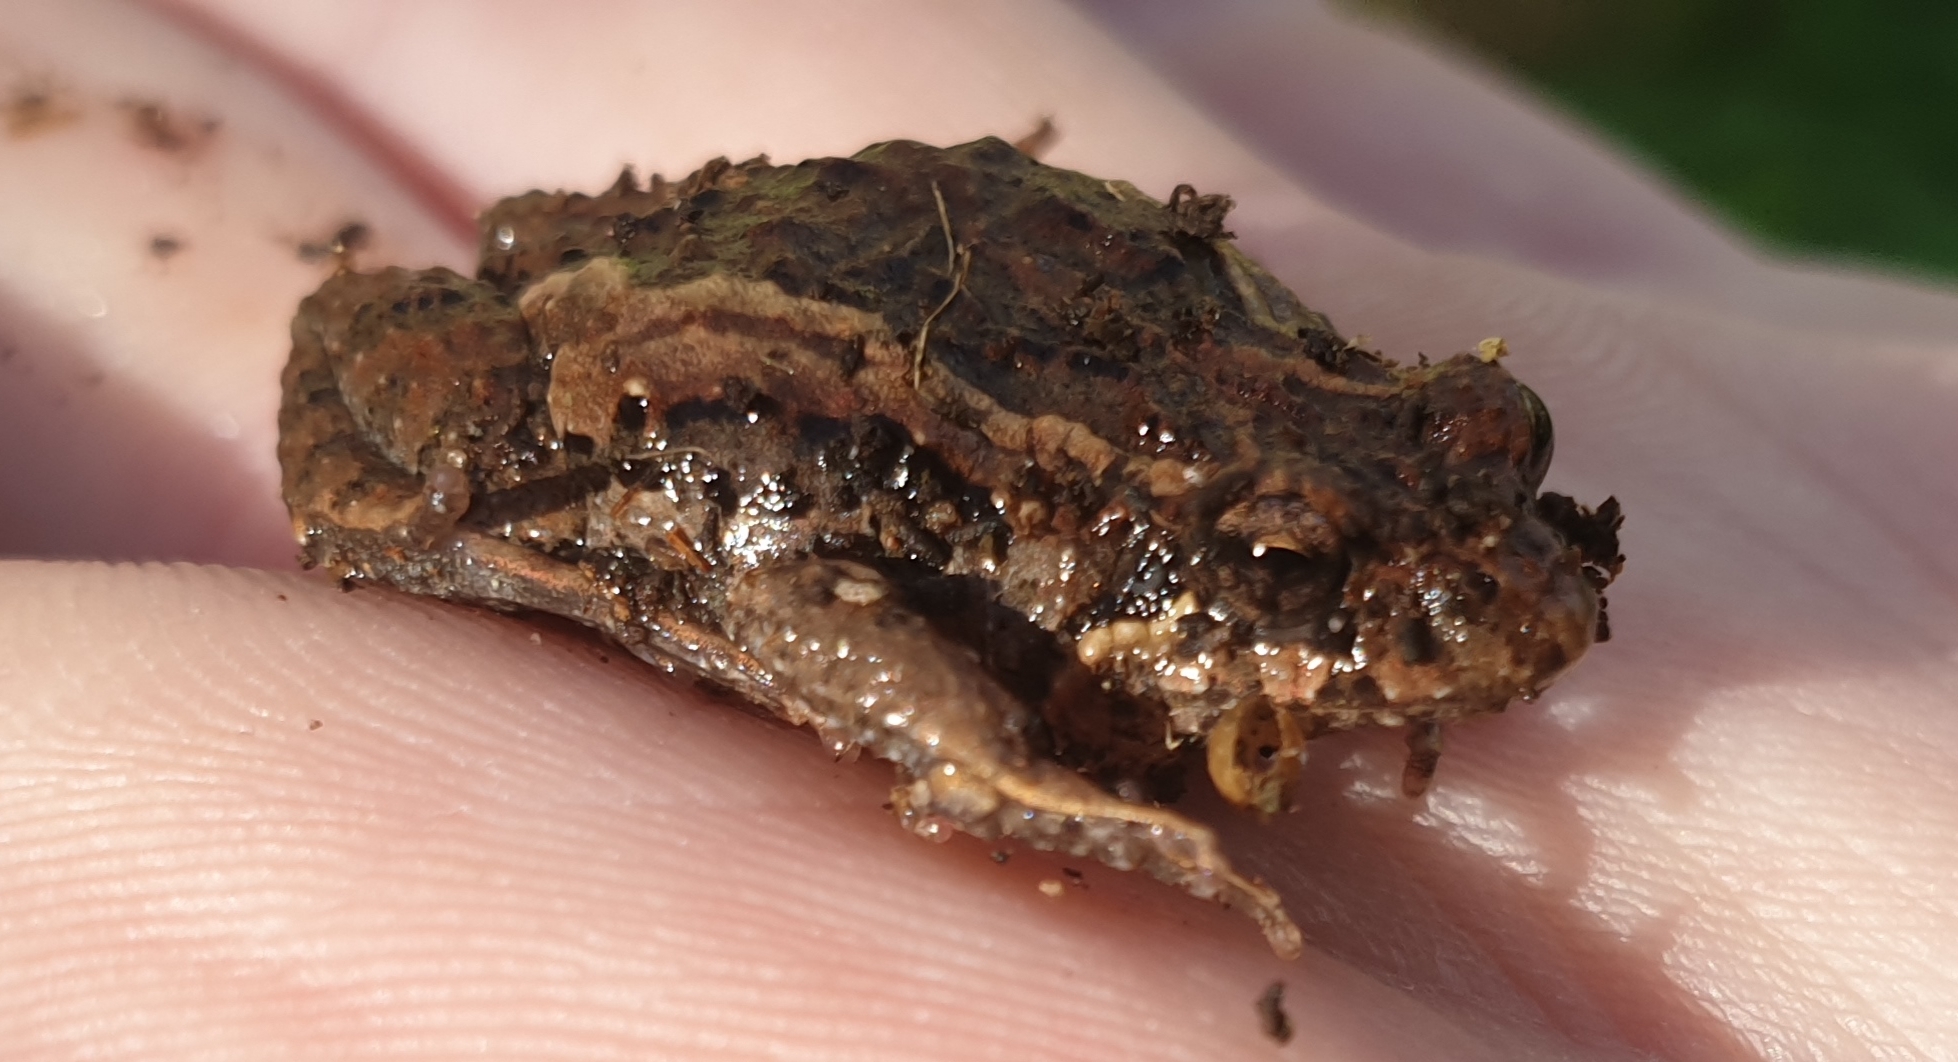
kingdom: Animalia
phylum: Chordata
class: Amphibia
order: Anura
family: Myobatrachidae
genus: Crinia
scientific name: Crinia signifera
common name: Brown froglet
